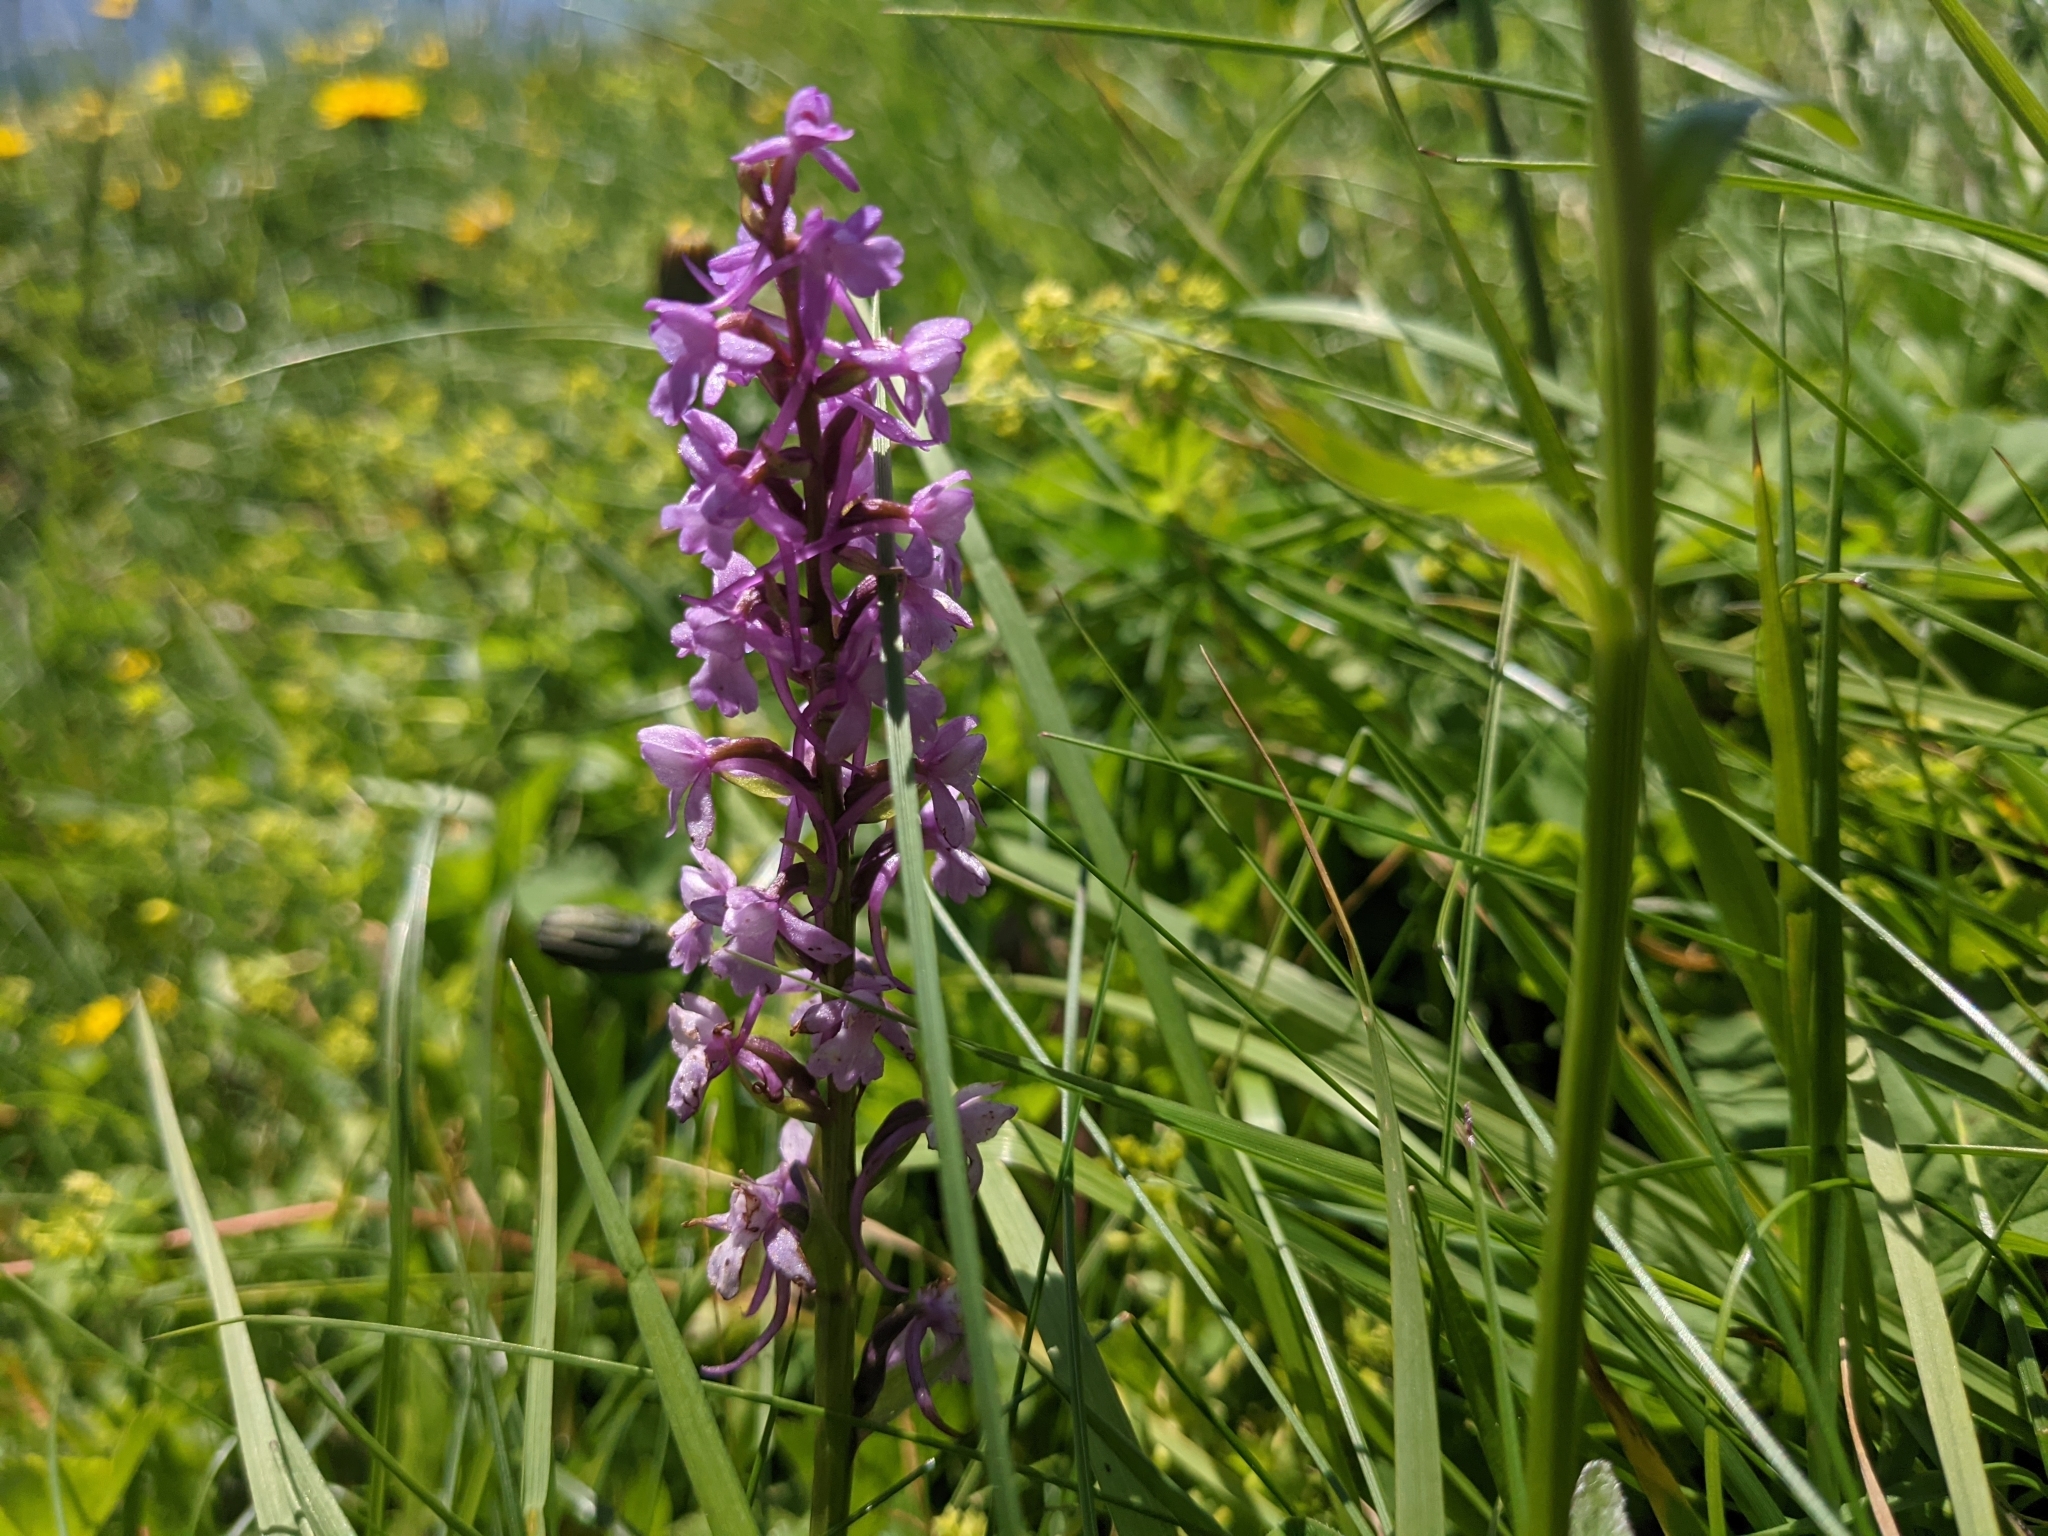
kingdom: Plantae
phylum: Tracheophyta
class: Liliopsida
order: Asparagales
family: Orchidaceae
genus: Gymnadenia
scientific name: Gymnadenia conopsea
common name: Fragrant orchid
